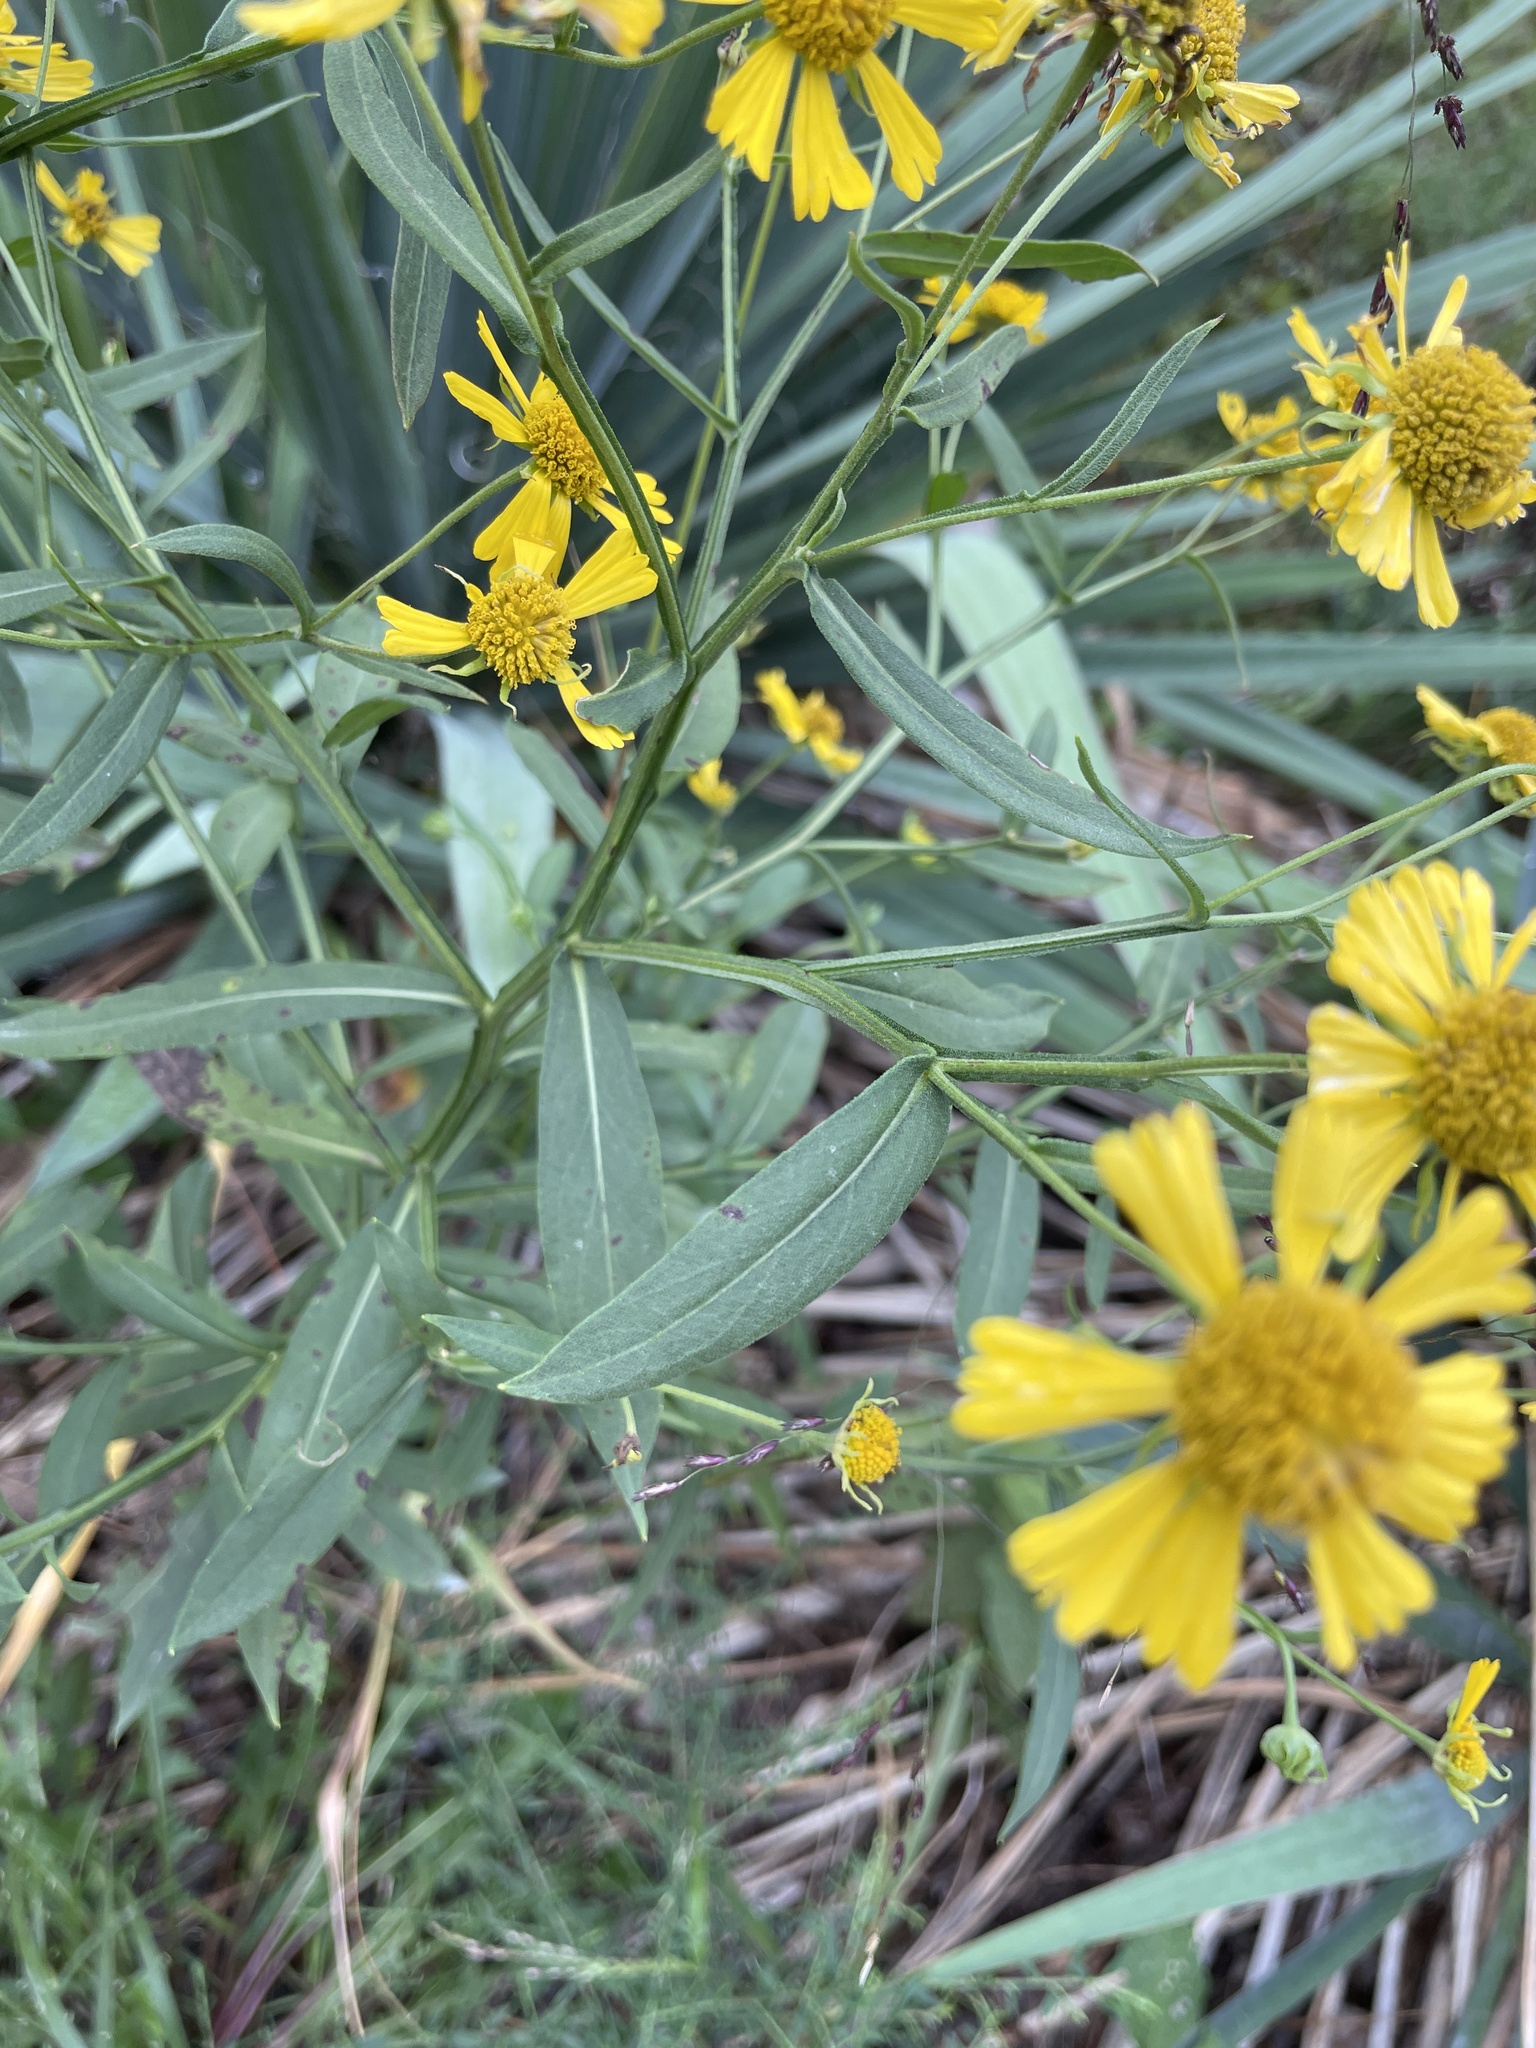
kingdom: Plantae
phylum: Tracheophyta
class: Magnoliopsida
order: Asterales
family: Asteraceae
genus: Helenium
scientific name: Helenium autumnale
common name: Sneezeweed
